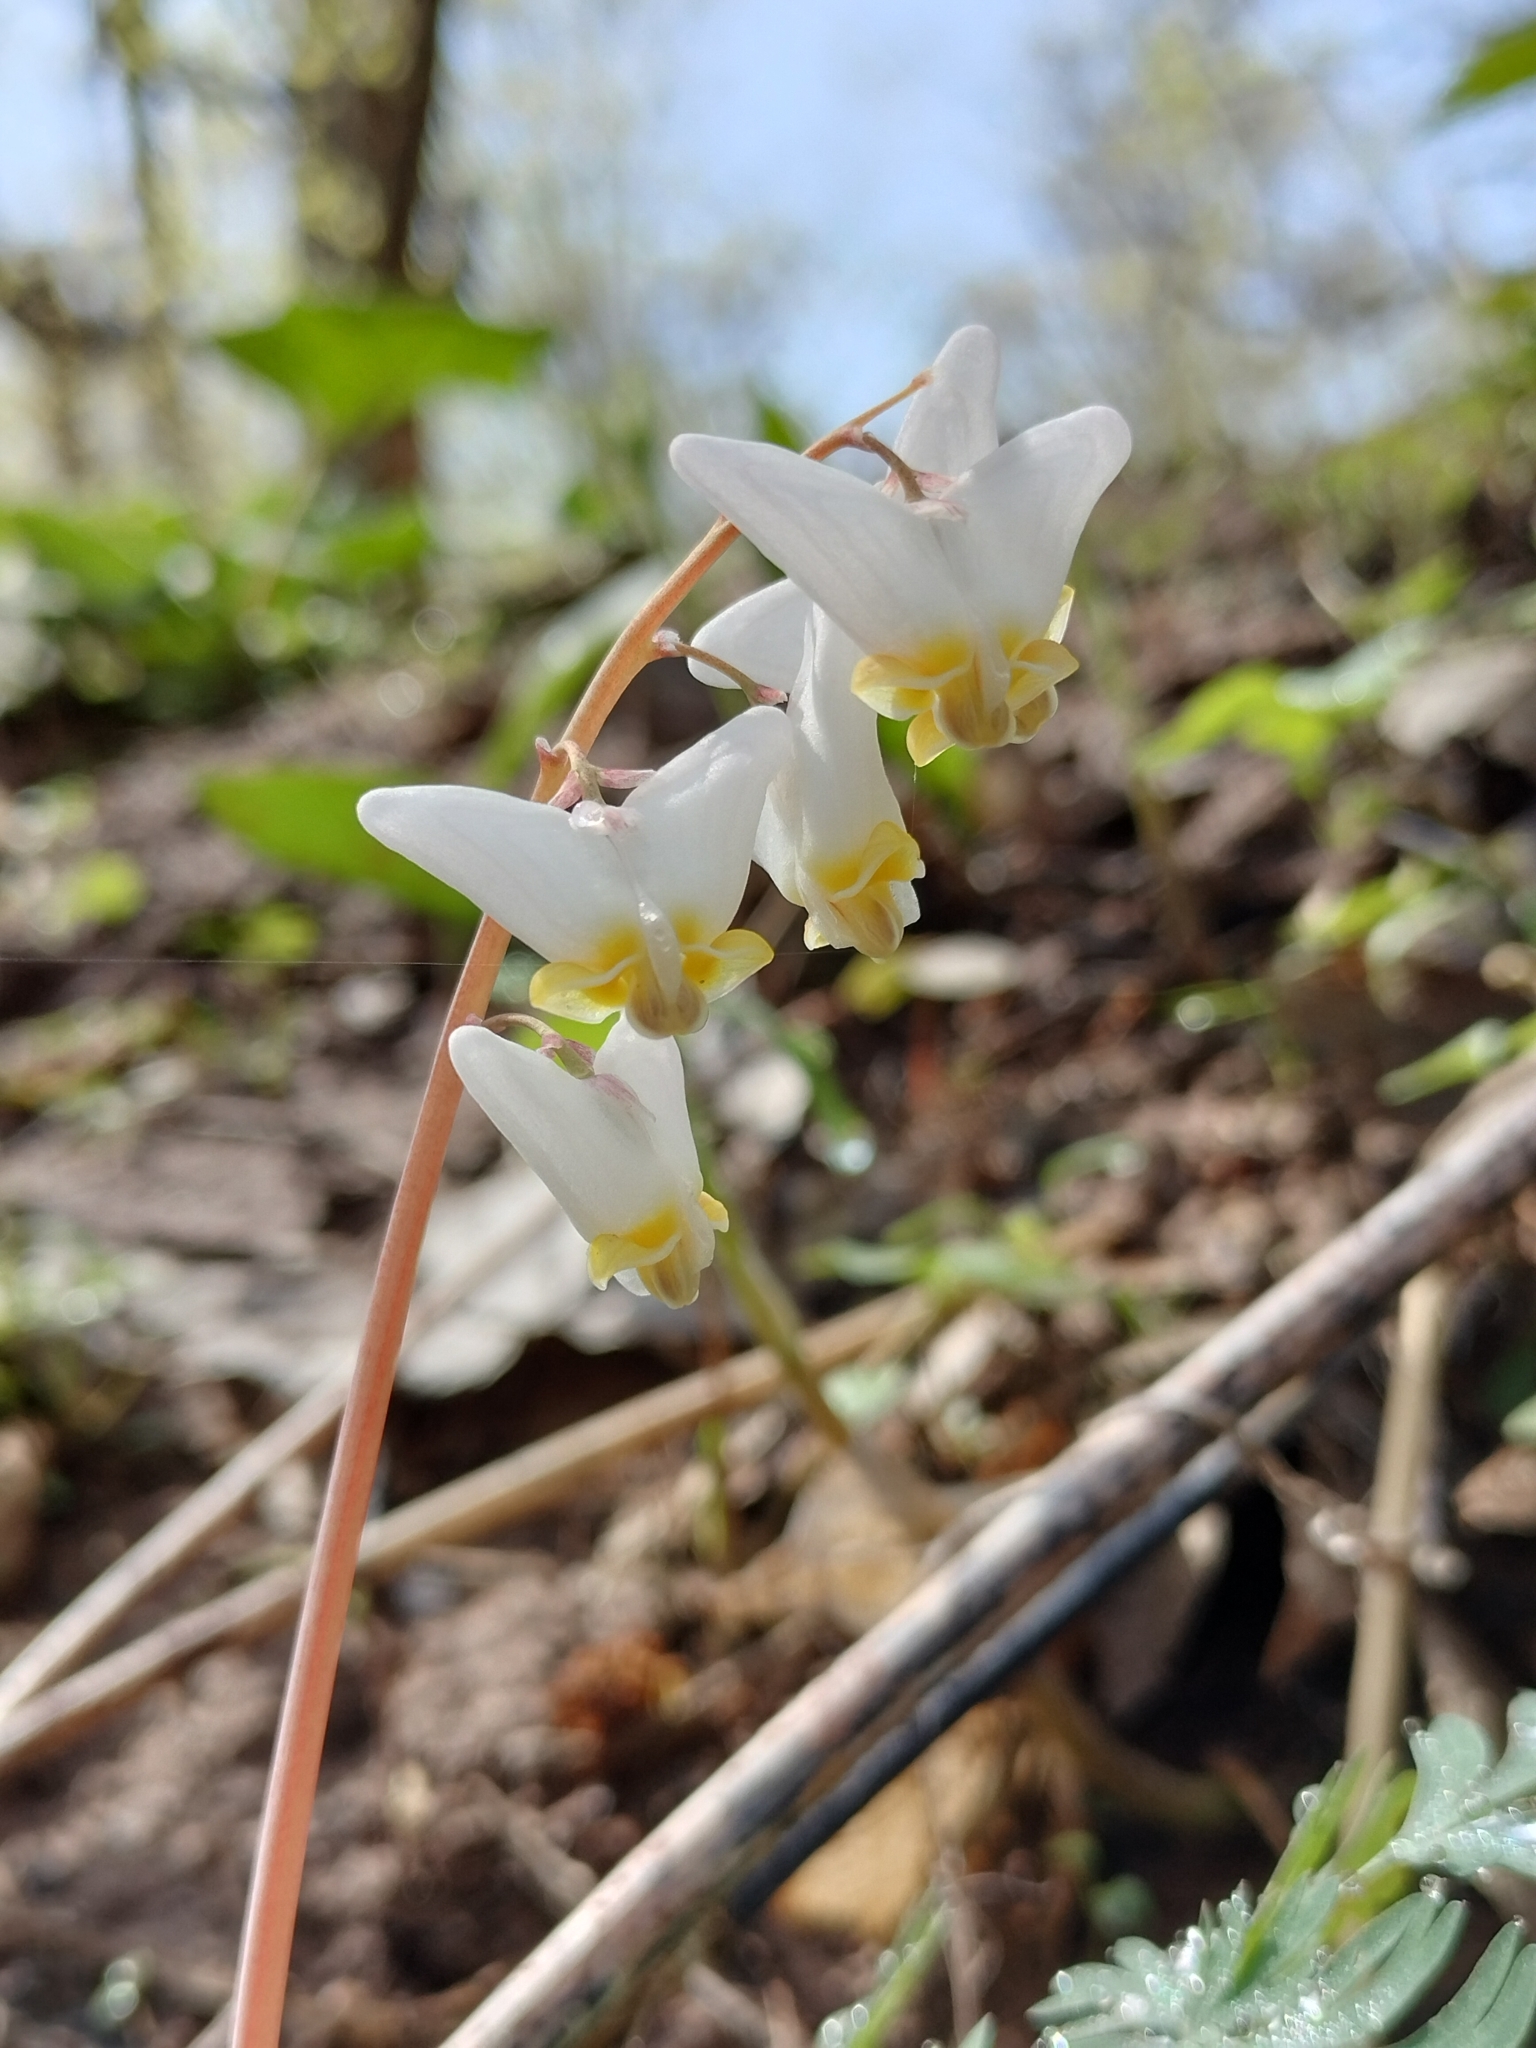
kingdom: Plantae
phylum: Tracheophyta
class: Magnoliopsida
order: Ranunculales
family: Papaveraceae
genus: Dicentra
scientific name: Dicentra cucullaria
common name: Dutchman's breeches
